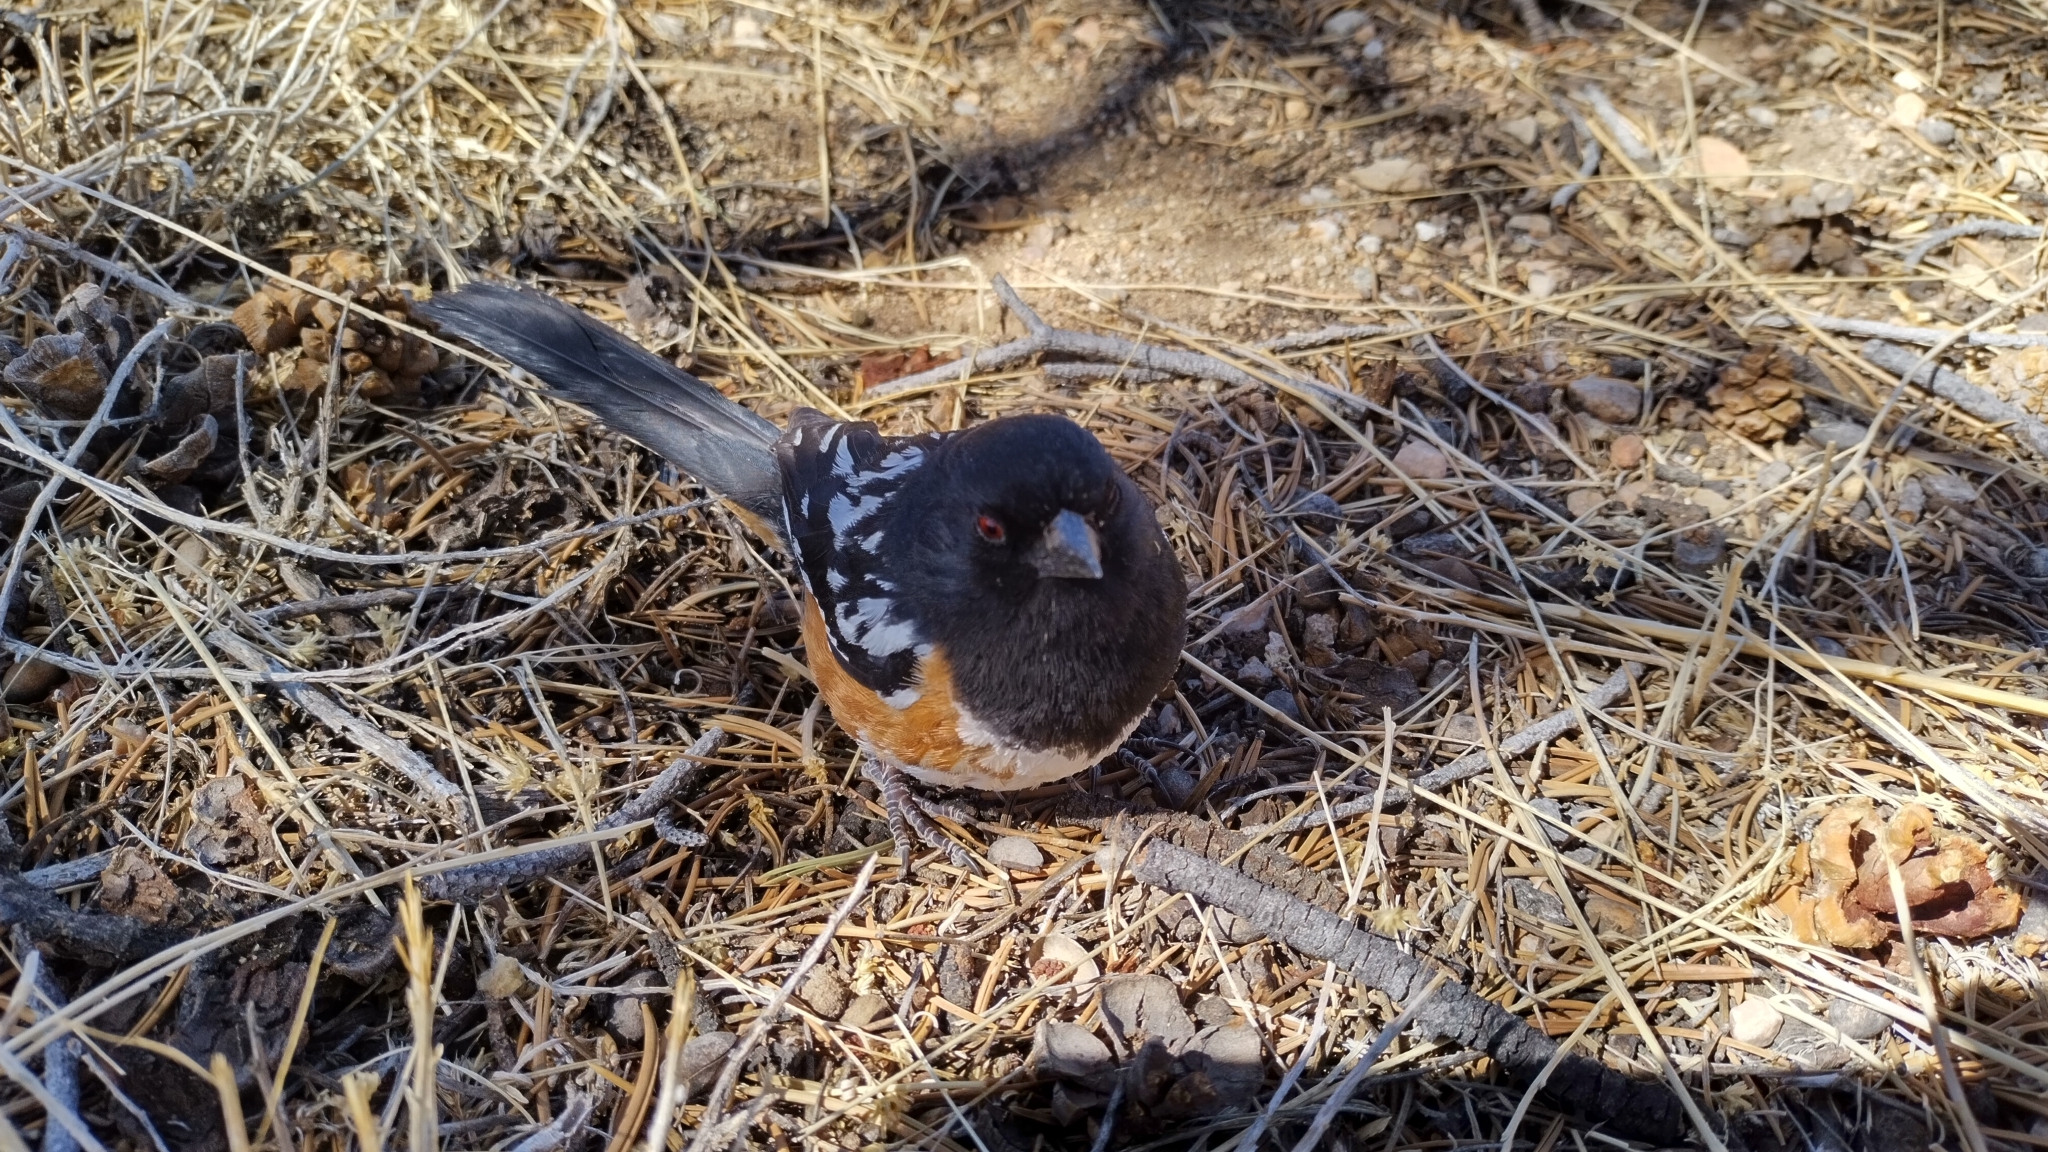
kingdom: Animalia
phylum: Chordata
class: Aves
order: Passeriformes
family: Passerellidae
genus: Pipilo
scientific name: Pipilo maculatus
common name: Spotted towhee
